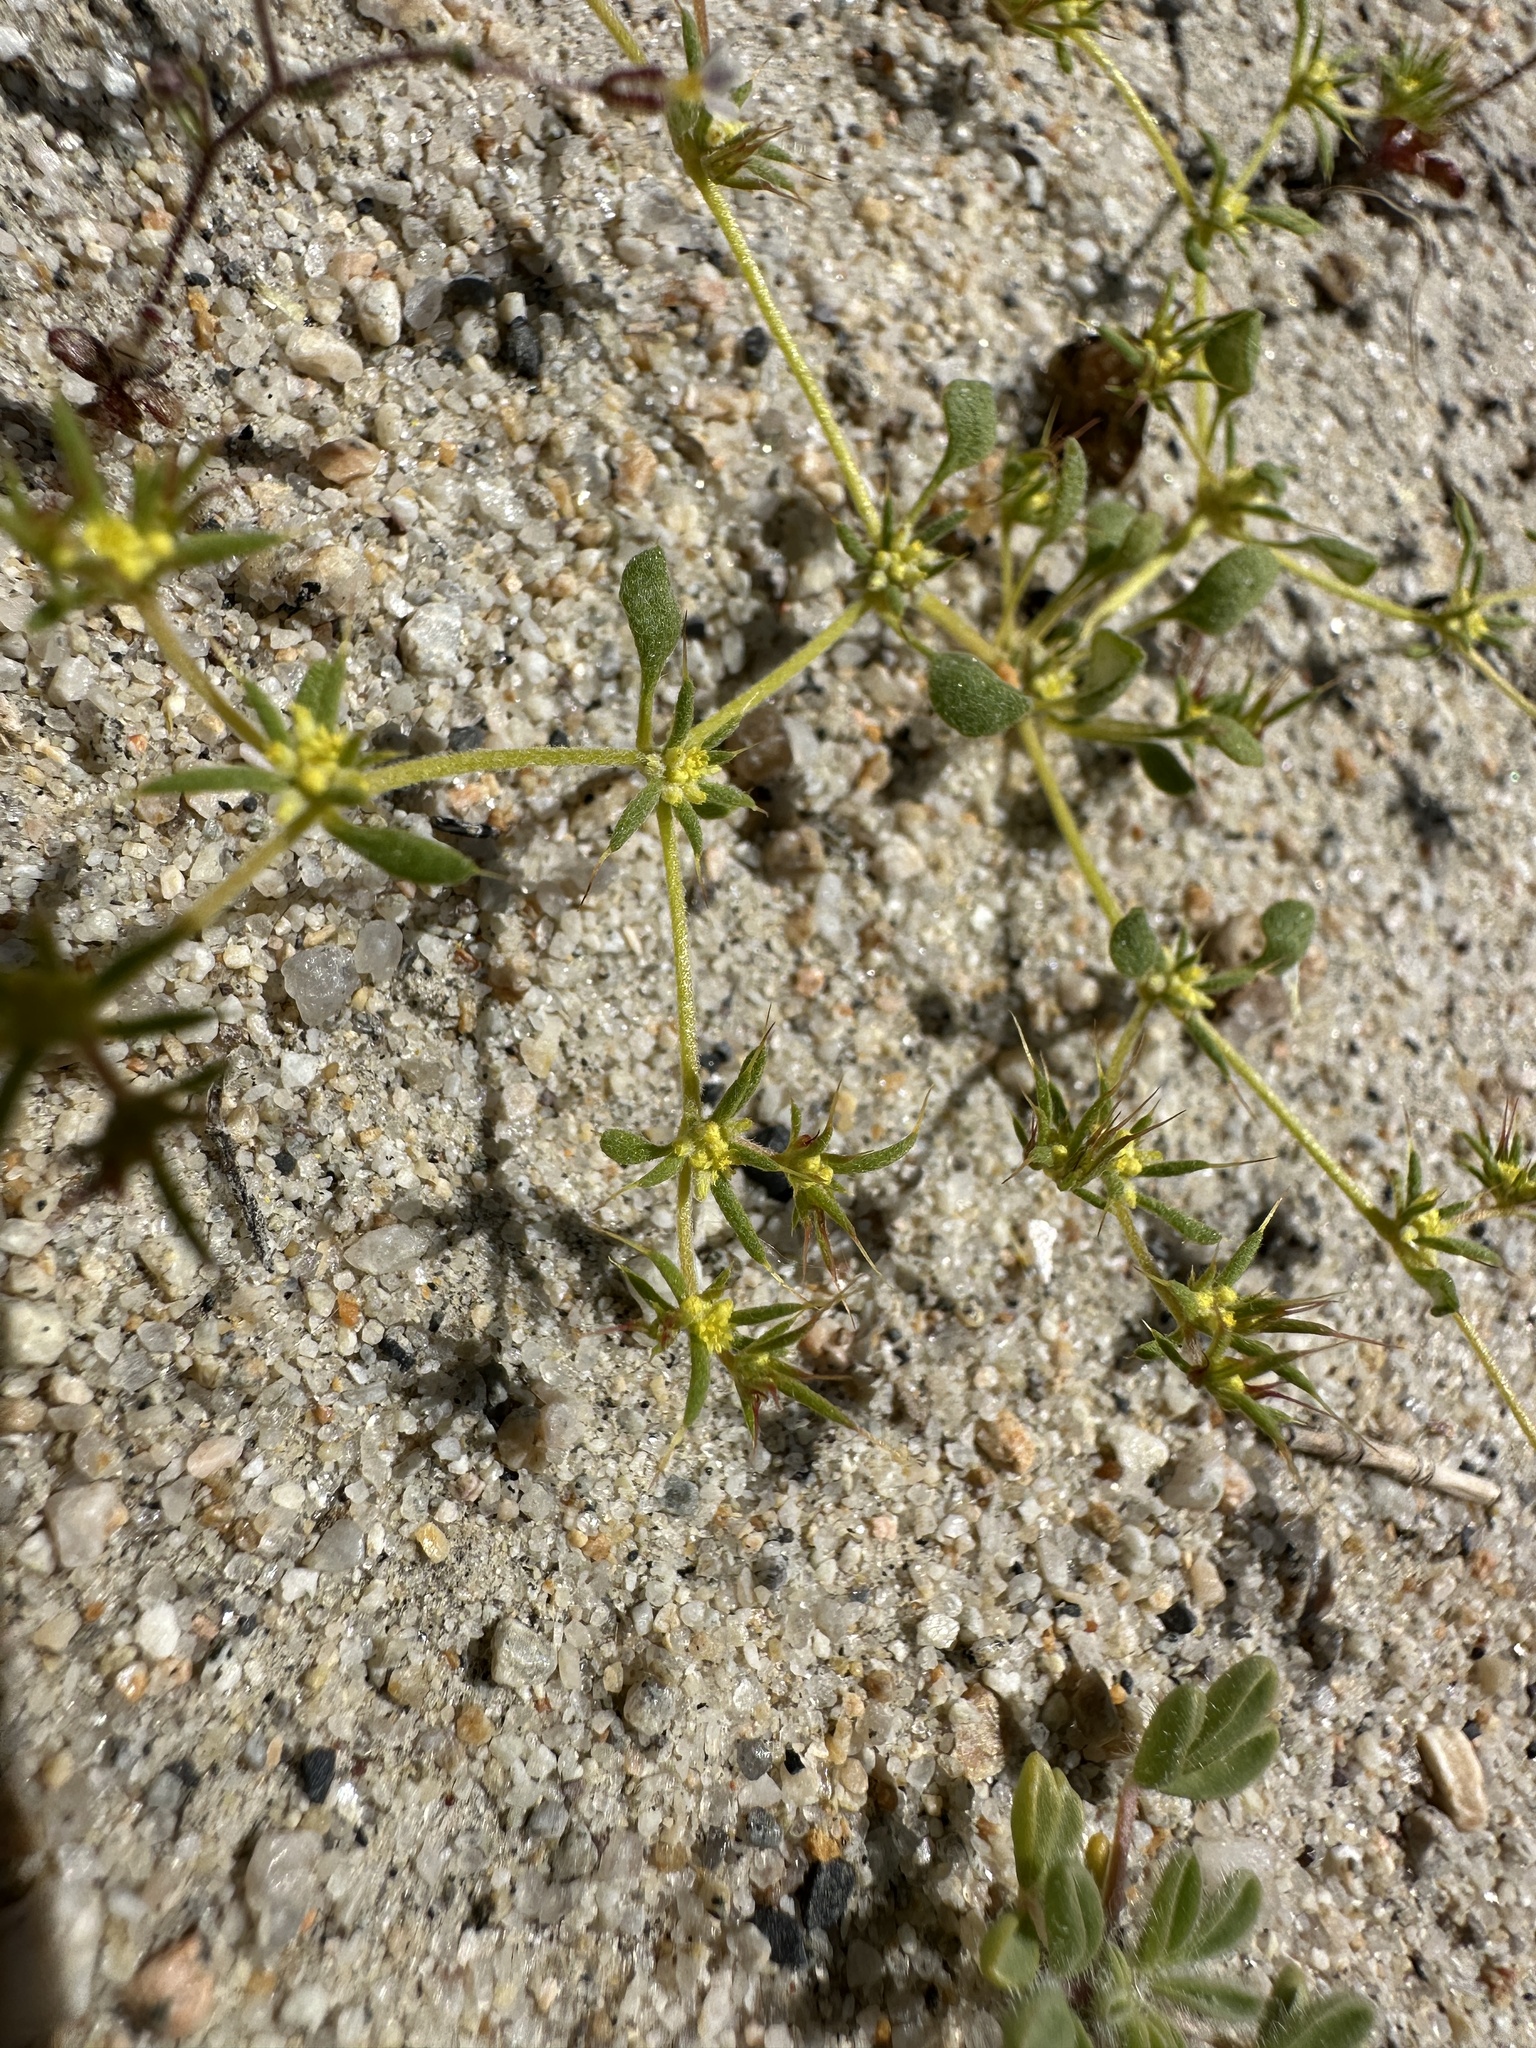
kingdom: Plantae
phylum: Tracheophyta
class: Magnoliopsida
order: Caryophyllales
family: Polygonaceae
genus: Goodmania
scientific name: Goodmania luteola
